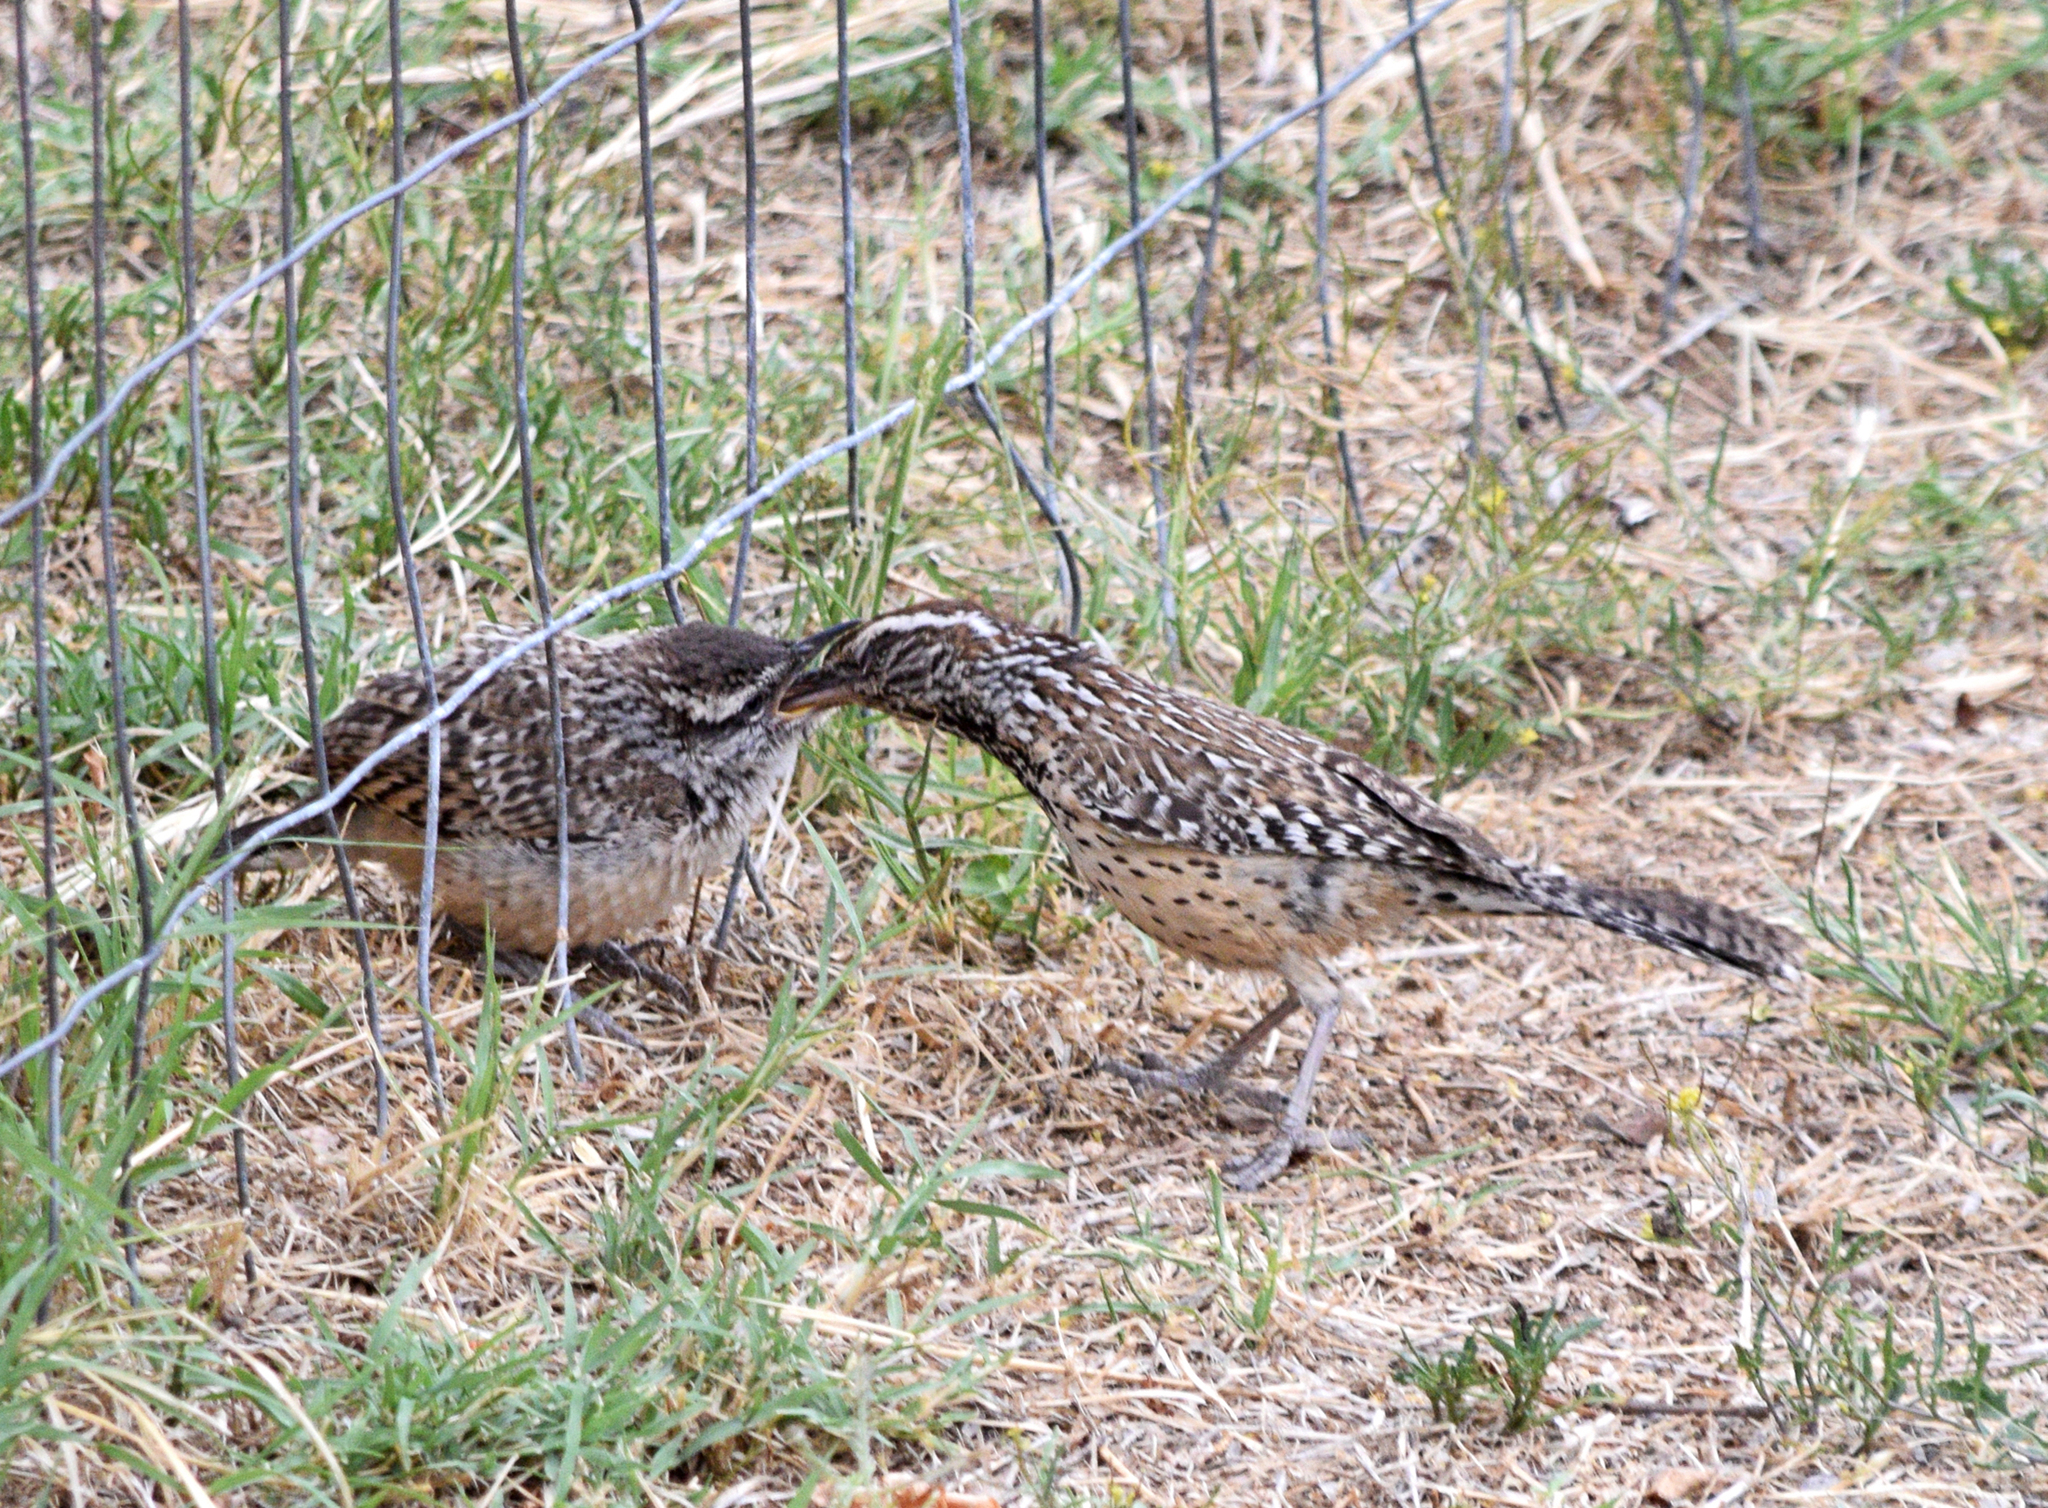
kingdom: Animalia
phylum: Chordata
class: Aves
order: Passeriformes
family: Troglodytidae
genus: Campylorhynchus
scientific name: Campylorhynchus brunneicapillus
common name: Cactus wren
